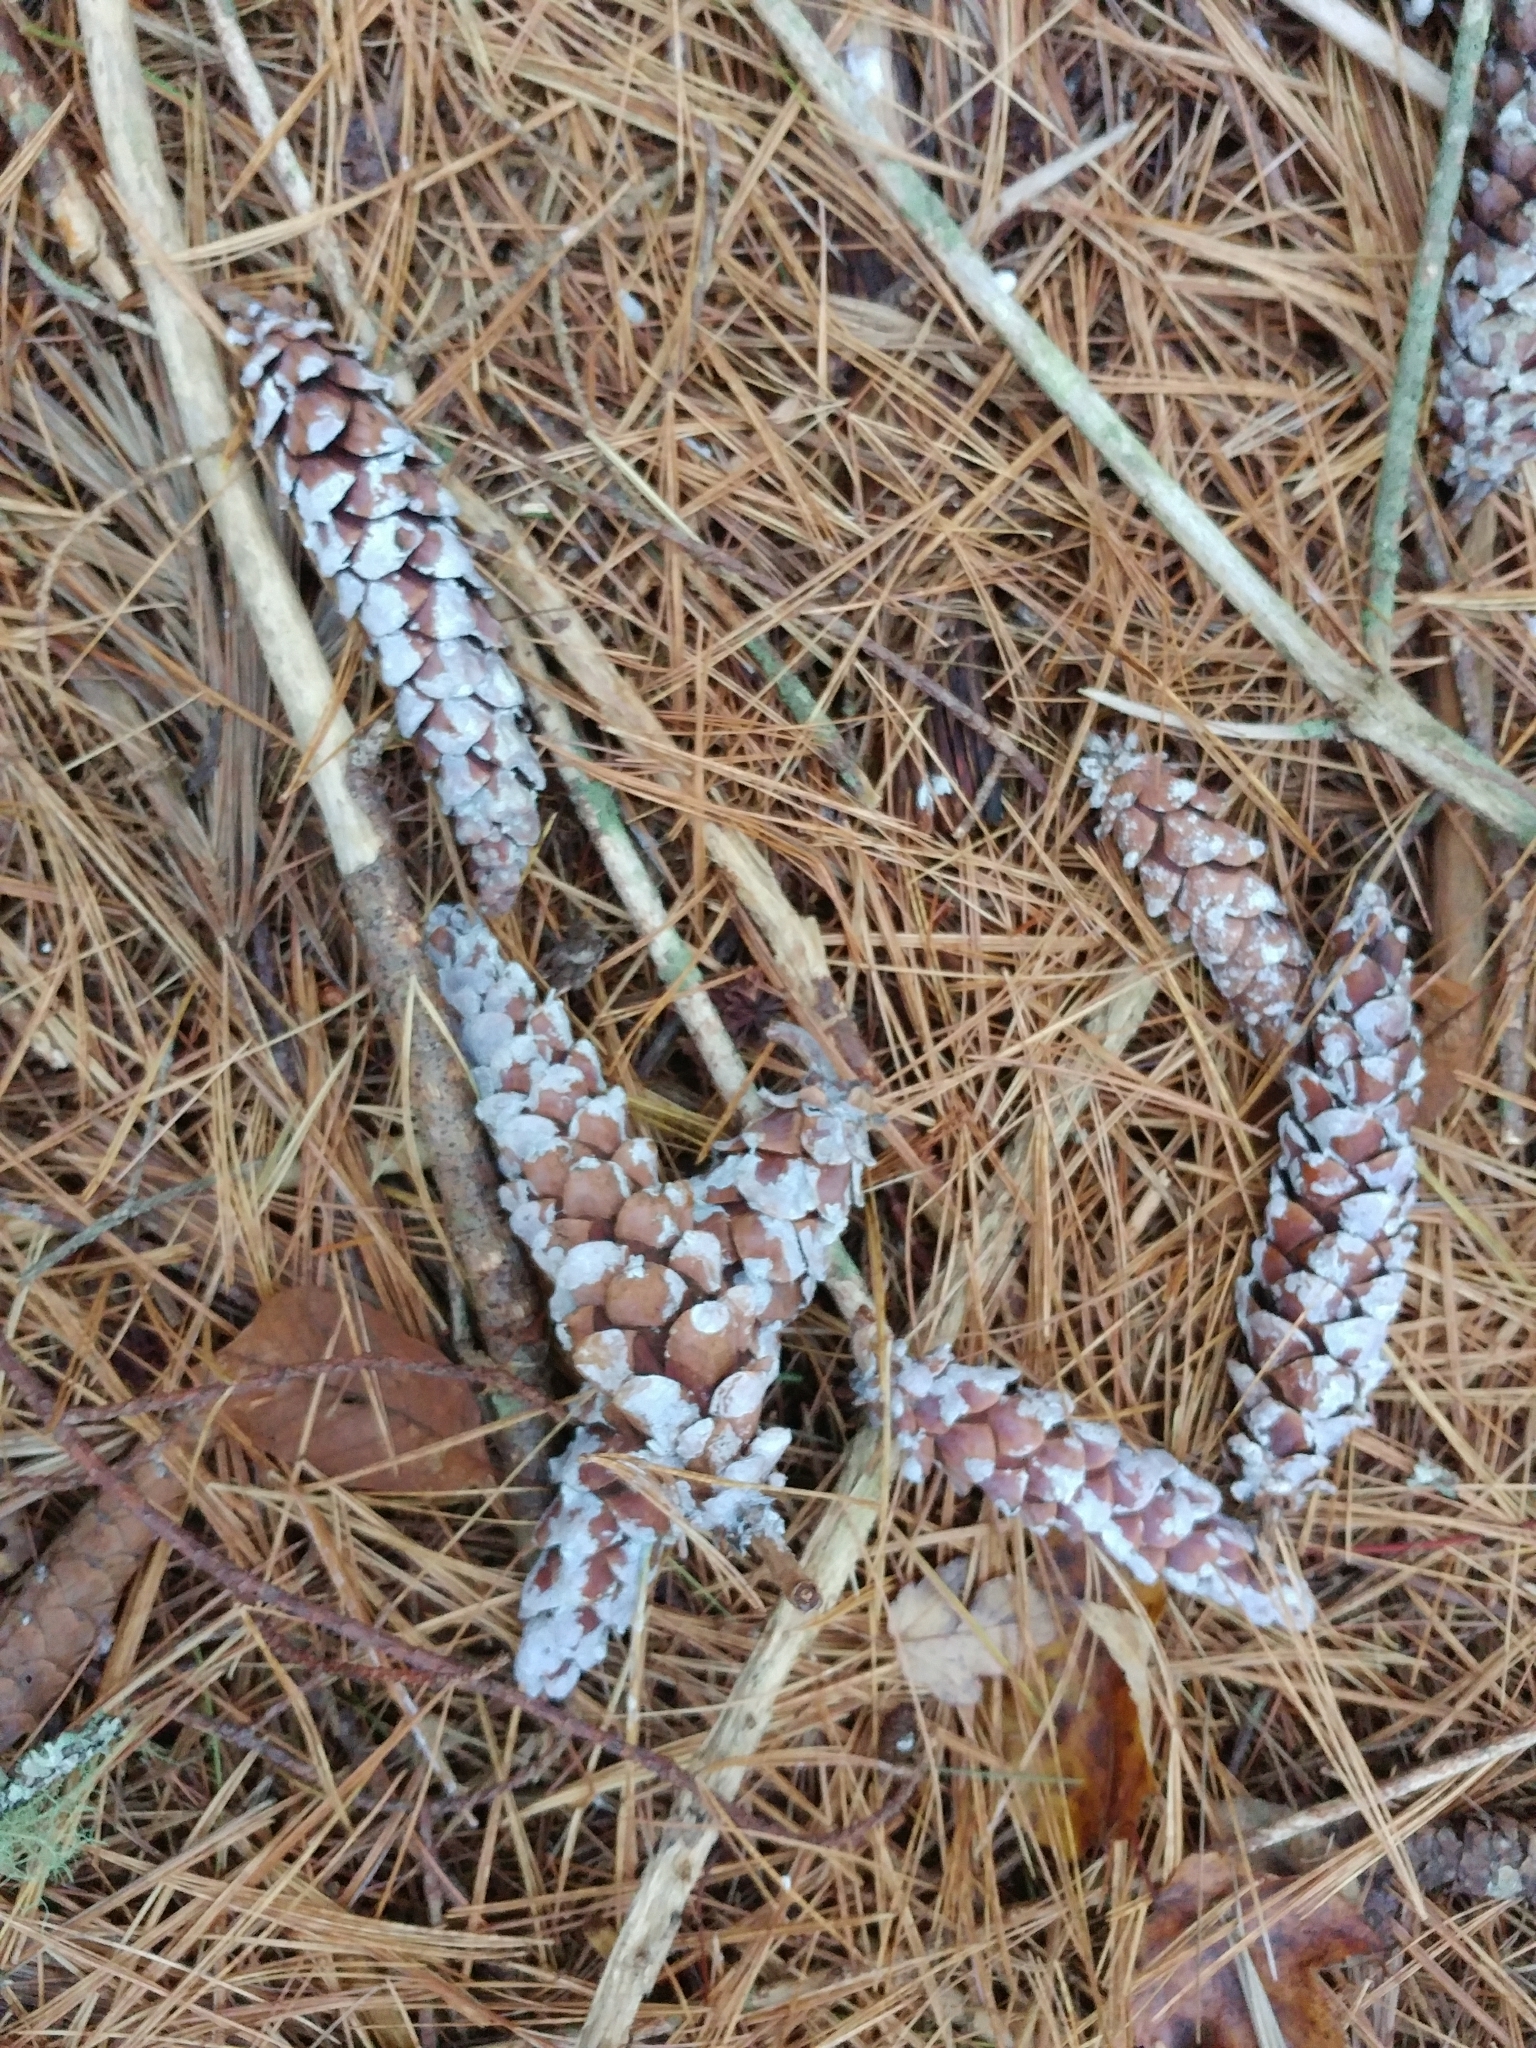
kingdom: Plantae
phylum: Tracheophyta
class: Pinopsida
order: Pinales
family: Pinaceae
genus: Pinus
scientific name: Pinus strobus
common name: Weymouth pine
